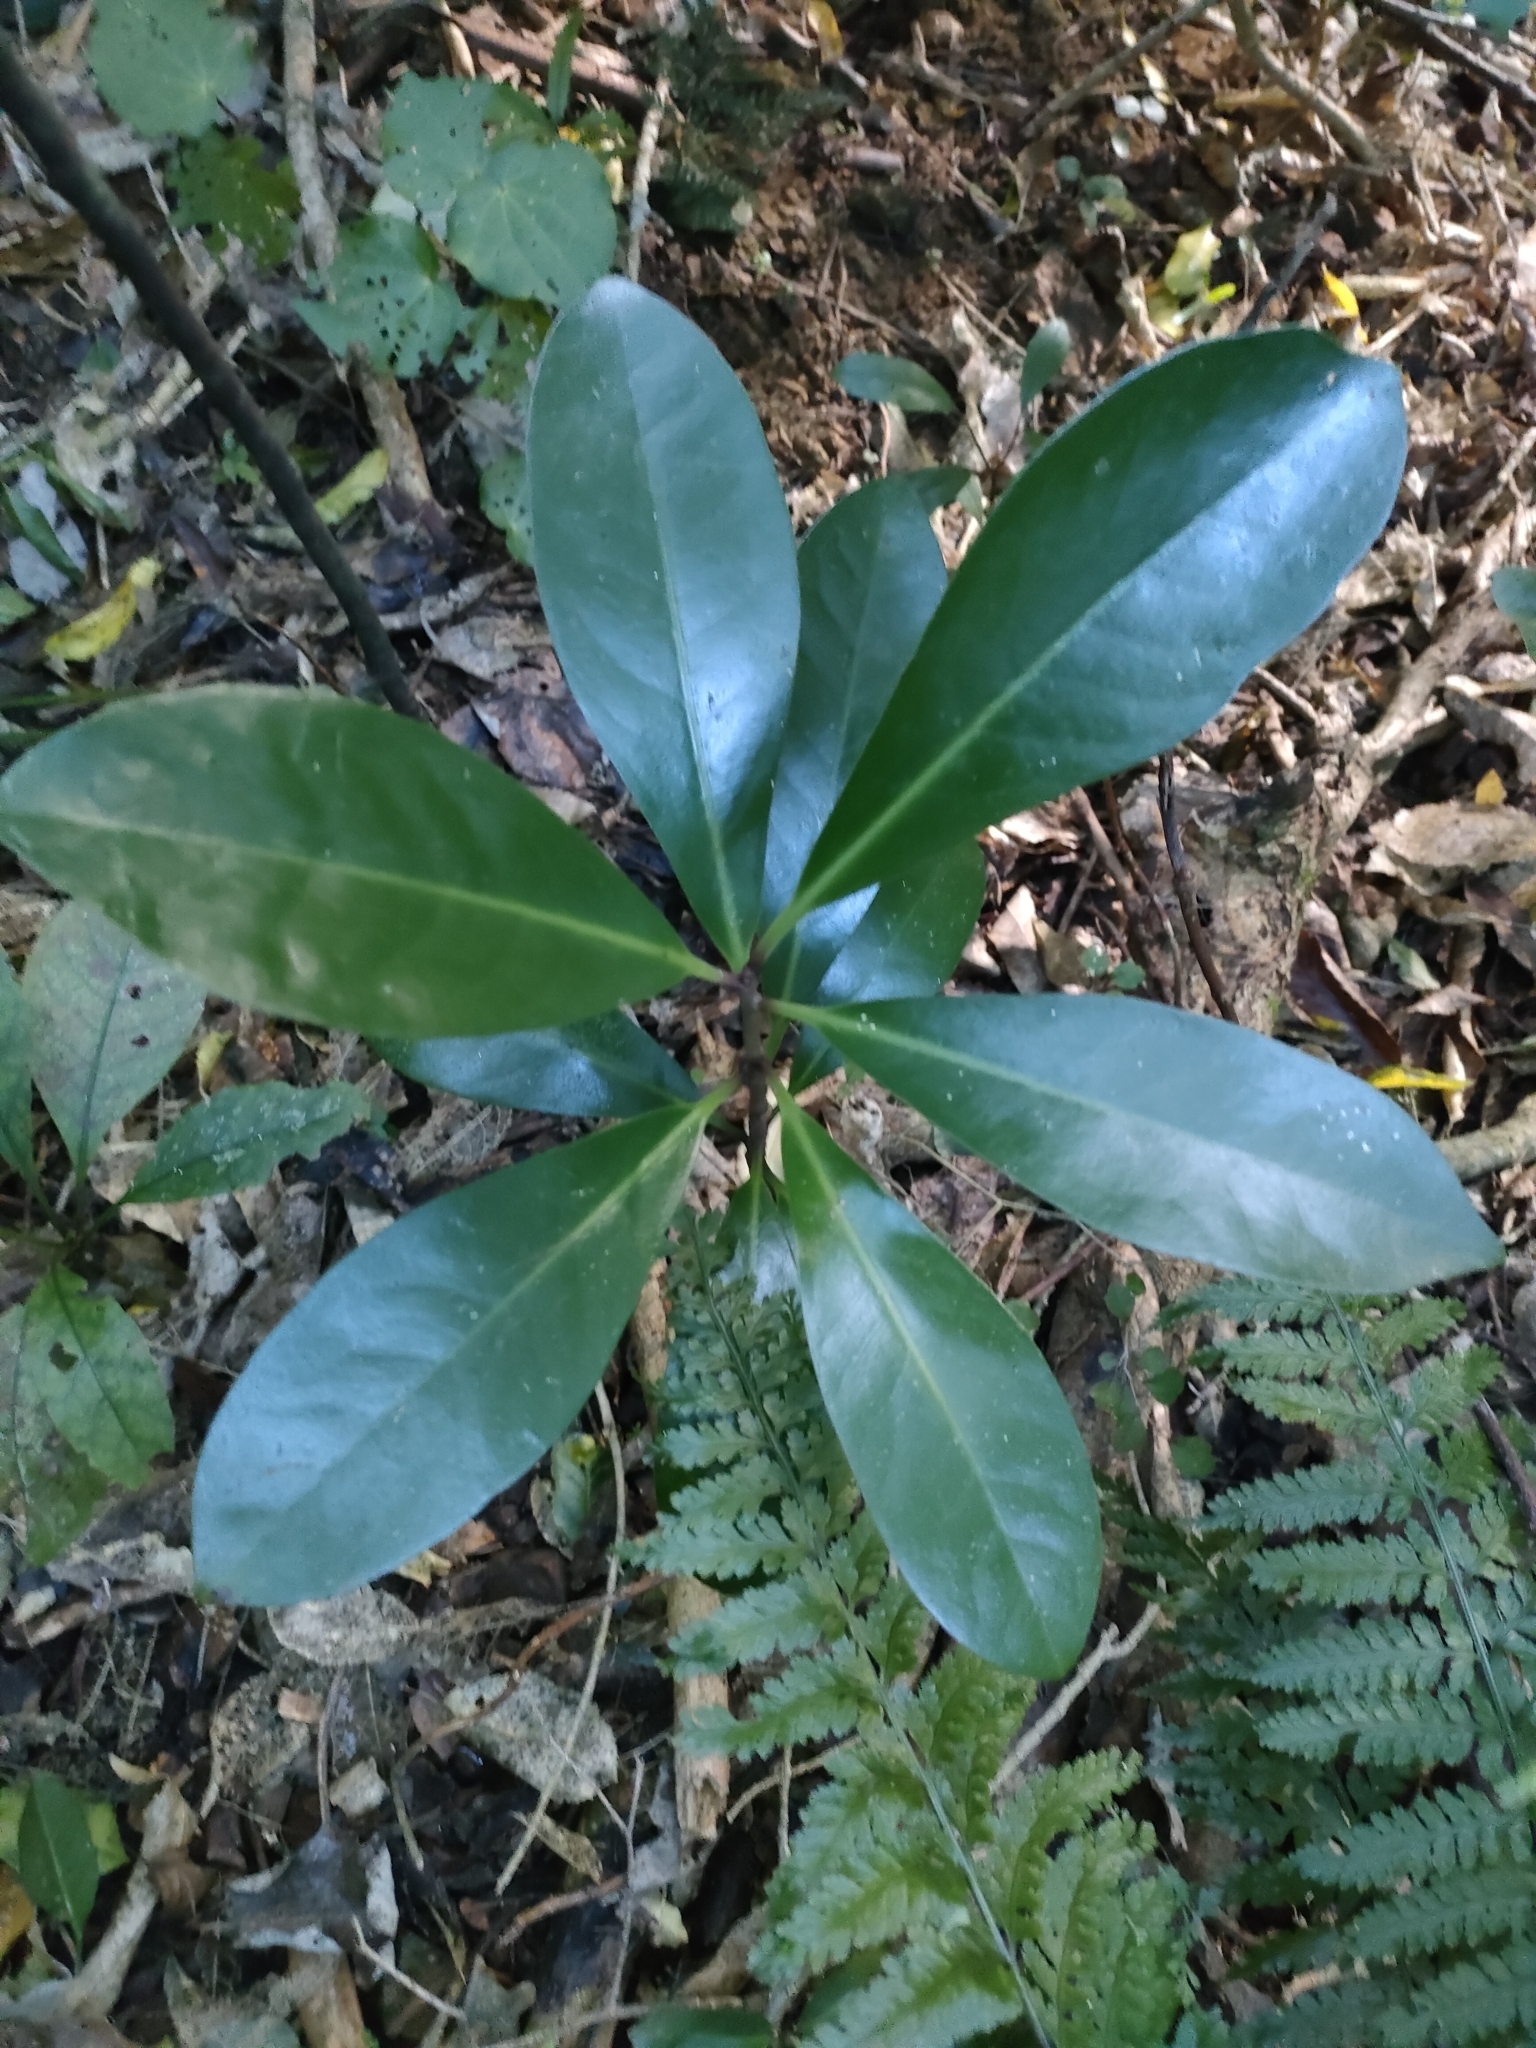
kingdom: Plantae
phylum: Tracheophyta
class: Magnoliopsida
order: Cucurbitales
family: Corynocarpaceae
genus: Corynocarpus
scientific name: Corynocarpus laevigatus
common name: New zealand laurel
